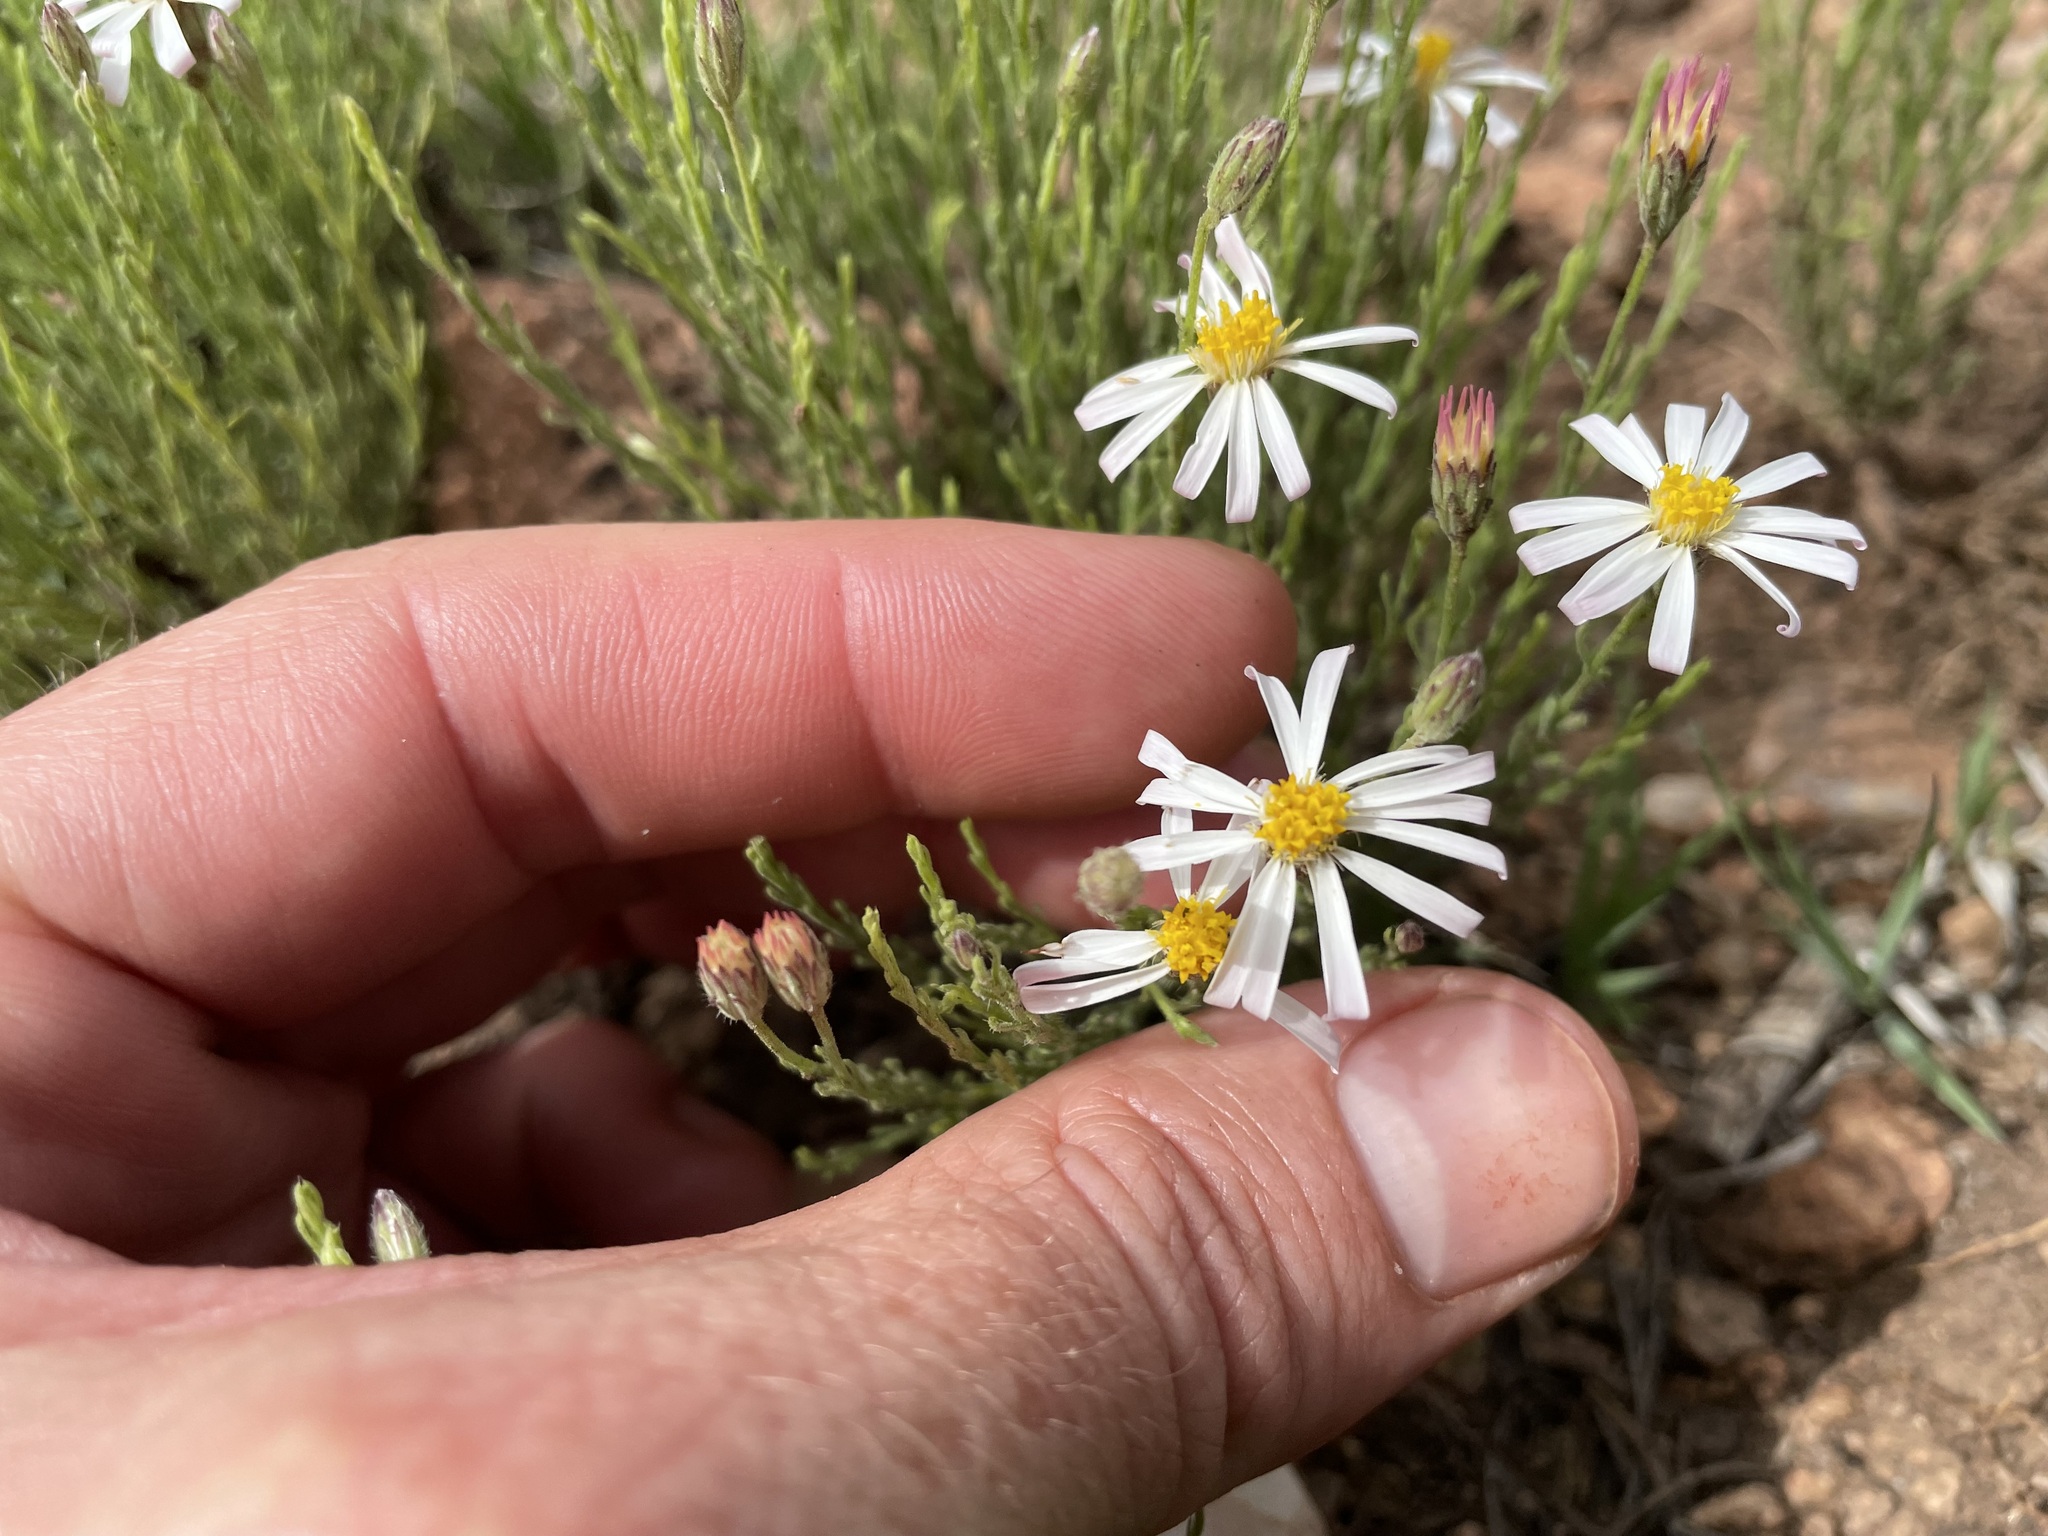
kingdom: Plantae
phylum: Tracheophyta
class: Magnoliopsida
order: Asterales
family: Asteraceae
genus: Chaetopappa
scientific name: Chaetopappa ericoides
